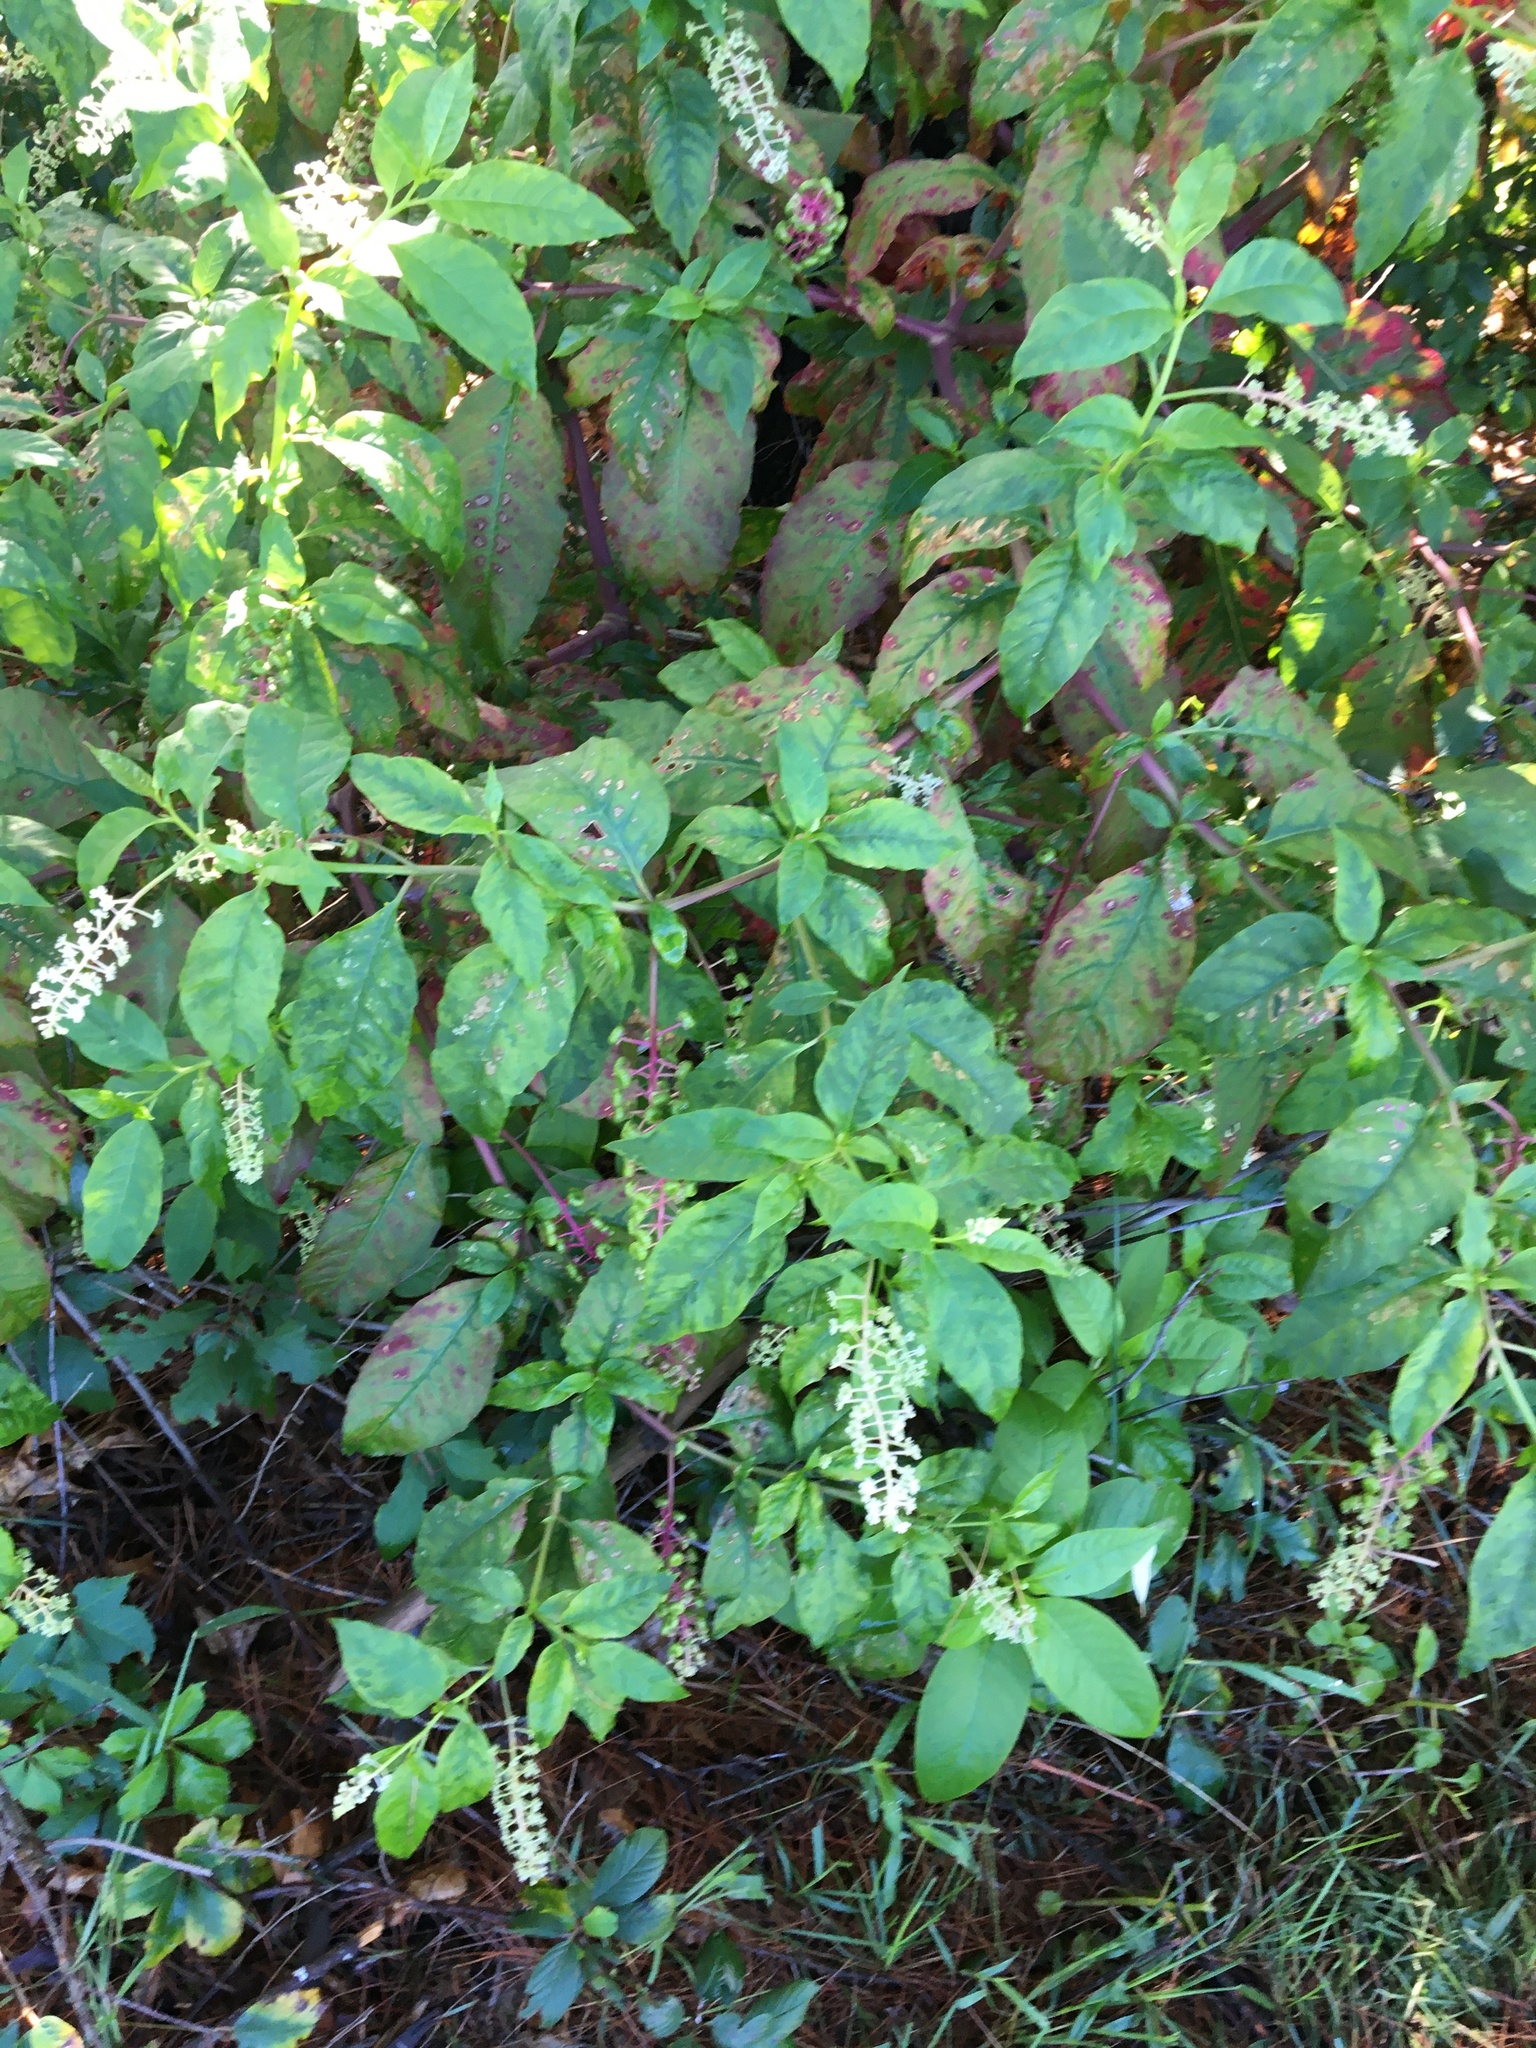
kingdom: Plantae
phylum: Tracheophyta
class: Magnoliopsida
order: Caryophyllales
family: Phytolaccaceae
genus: Phytolacca
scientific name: Phytolacca americana
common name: American pokeweed
